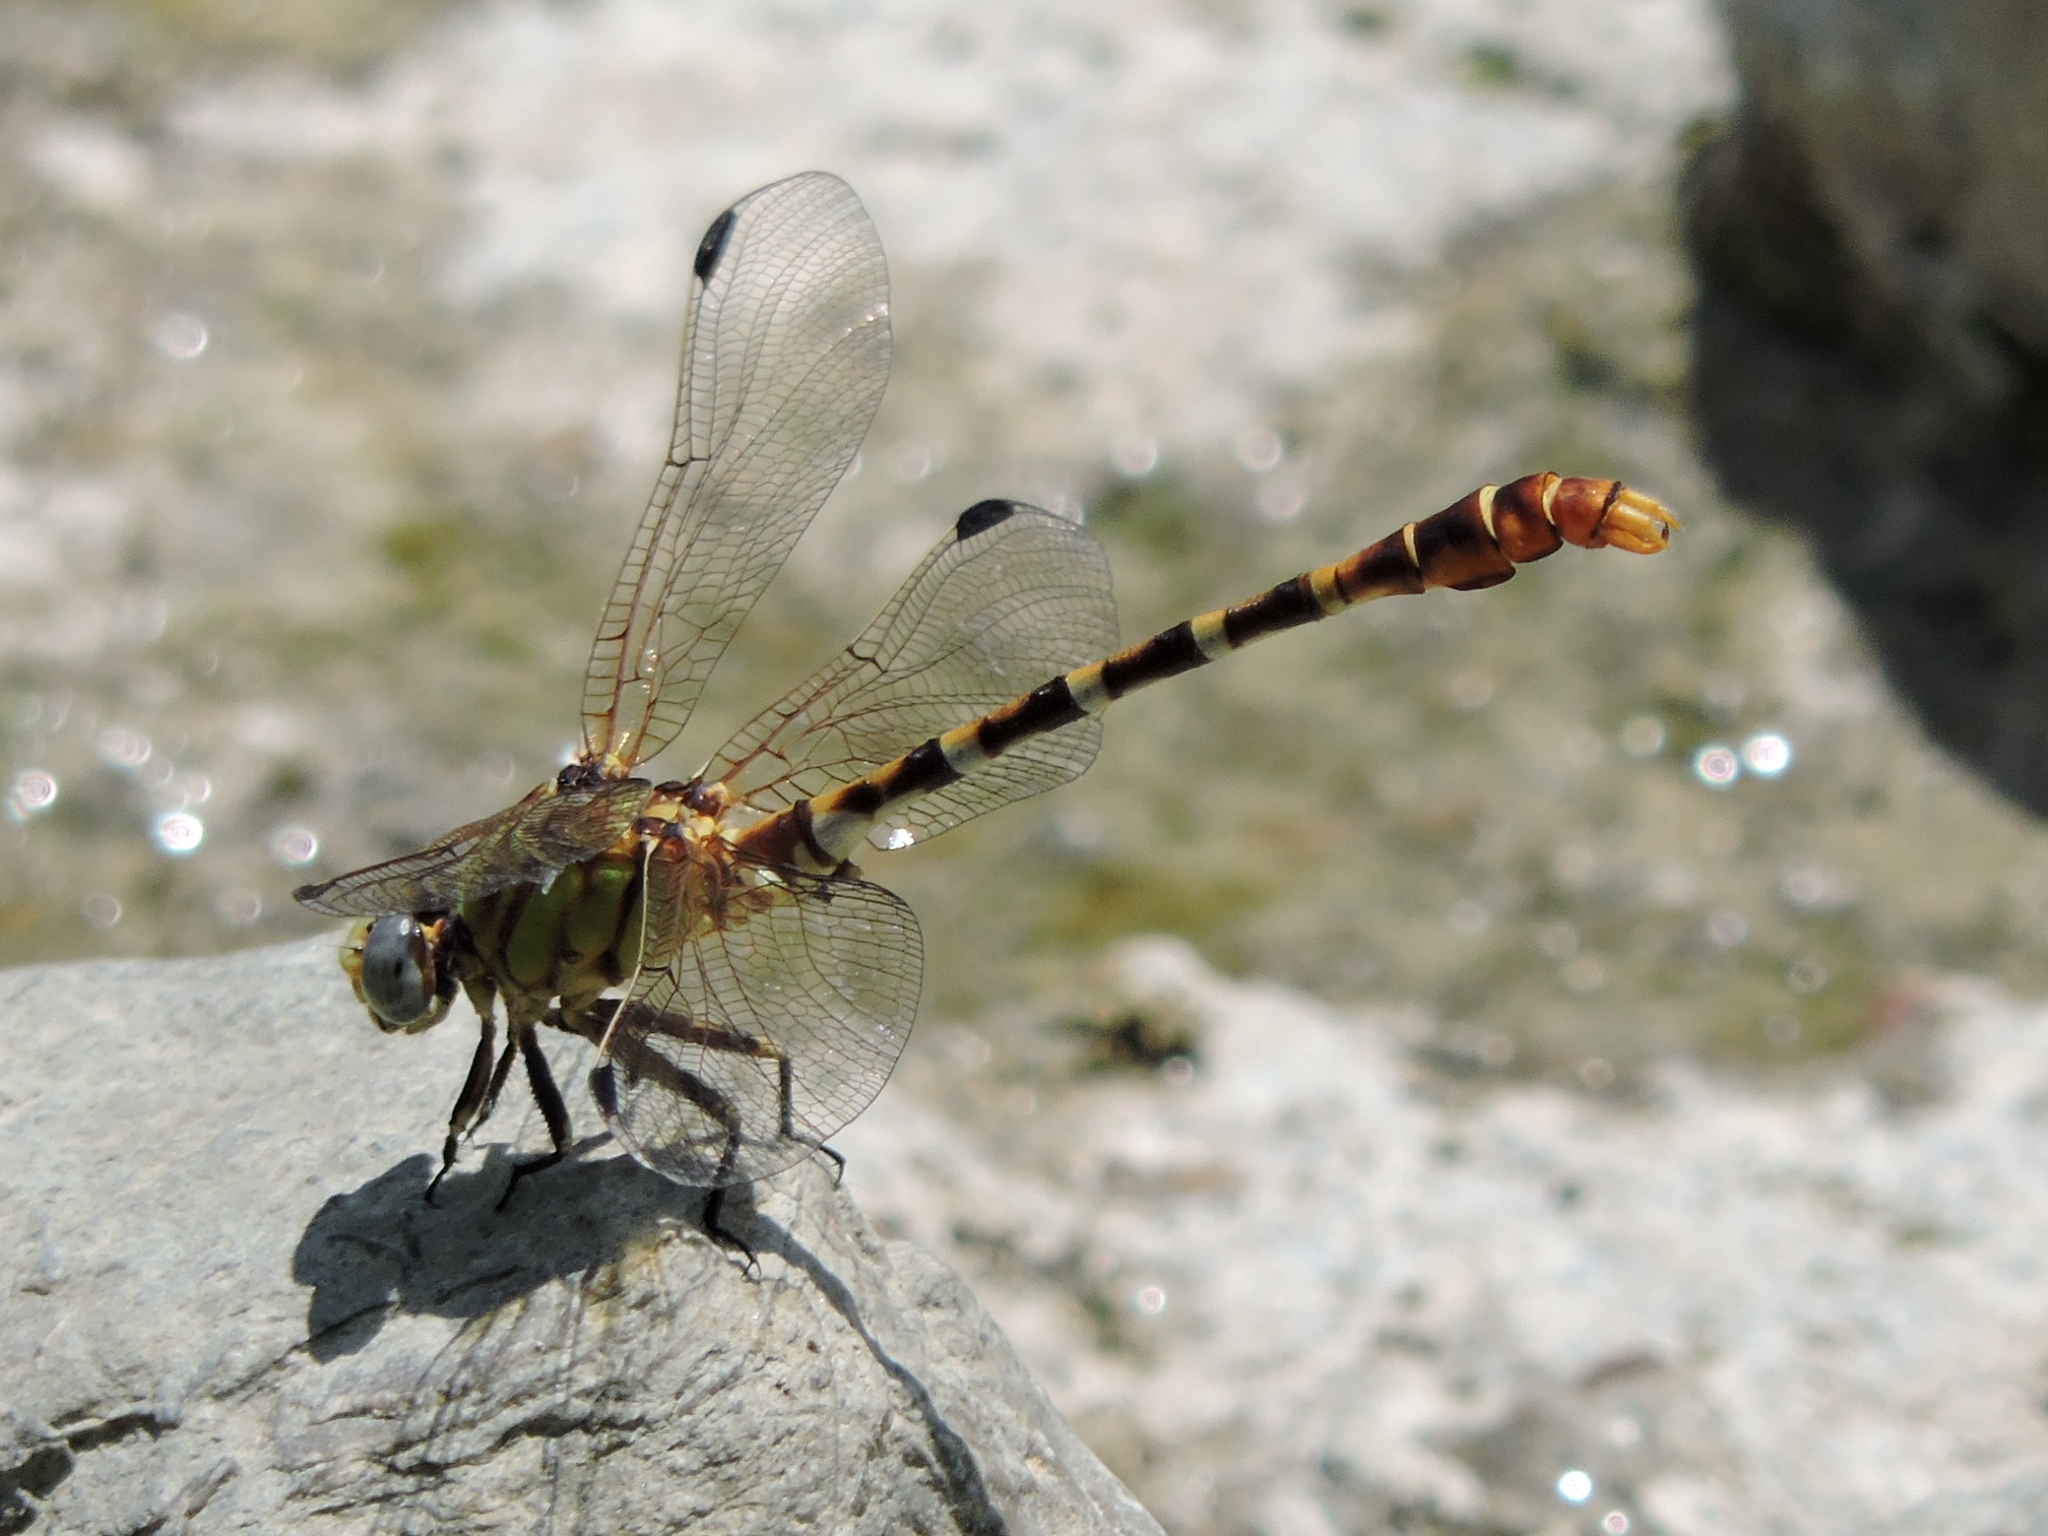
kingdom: Animalia
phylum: Arthropoda
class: Insecta
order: Odonata
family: Gomphidae
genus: Erpetogomphus
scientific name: Erpetogomphus designatus
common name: Eastern ringtail
